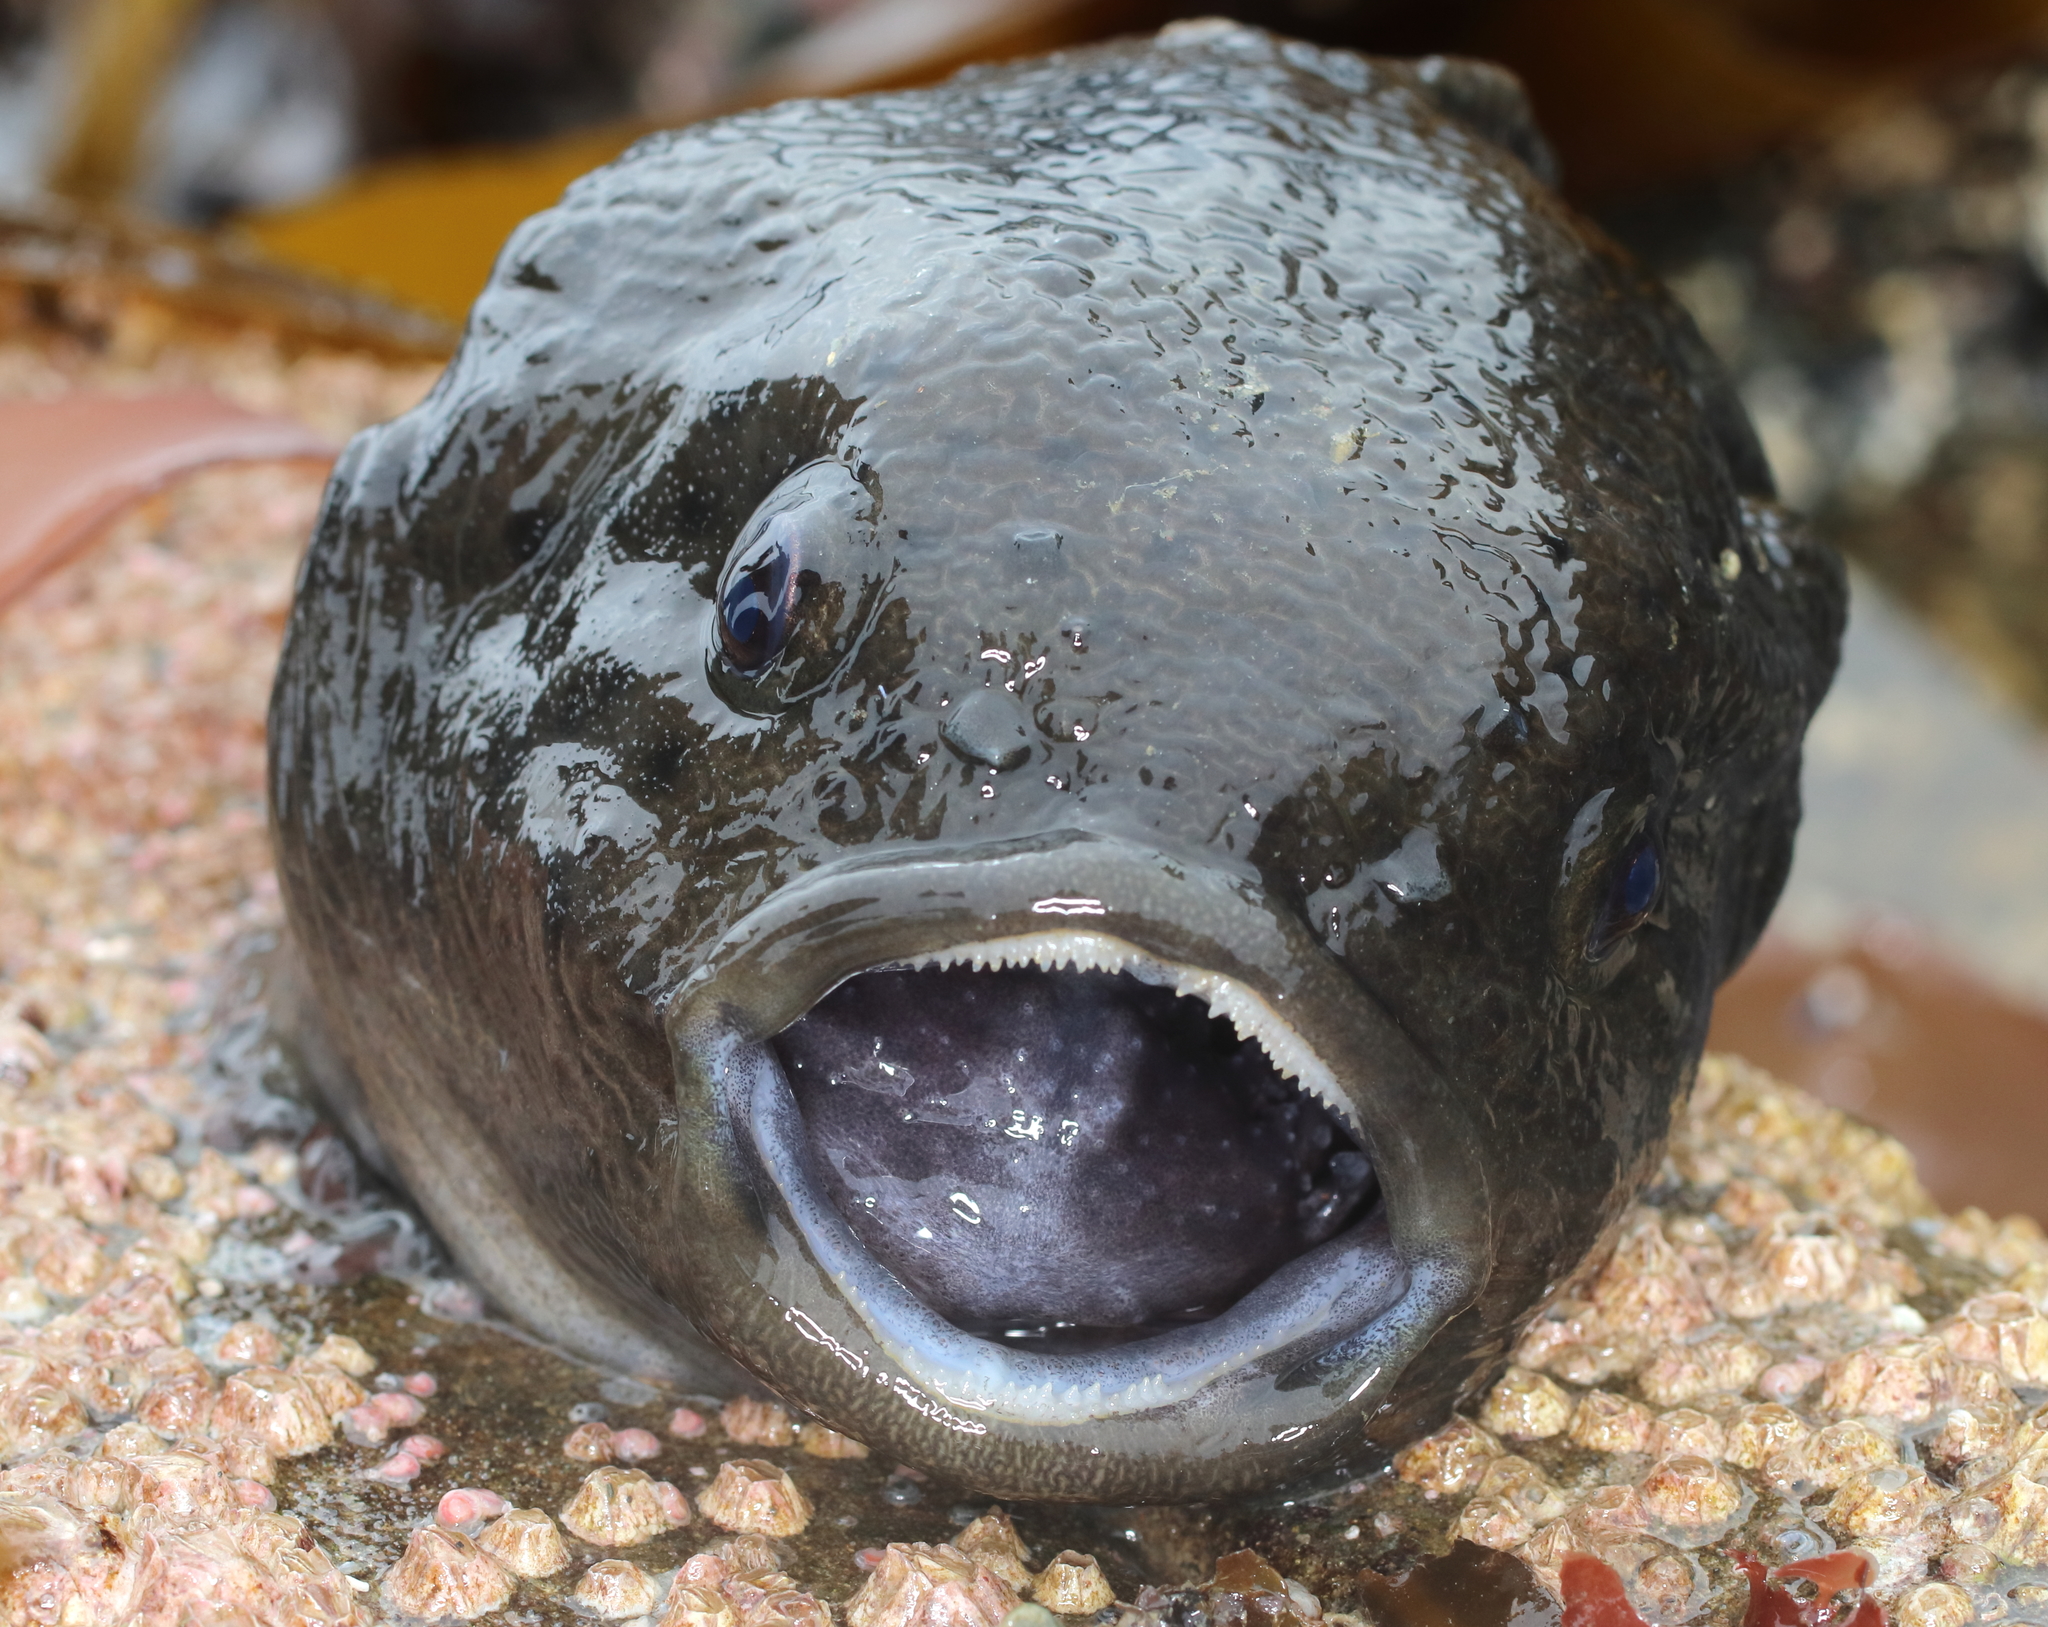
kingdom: Animalia
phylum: Chordata
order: Scorpaeniformes
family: Cyclopteridae
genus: Aptocyclus
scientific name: Aptocyclus ventricosus
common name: Smooth lumpsucker
